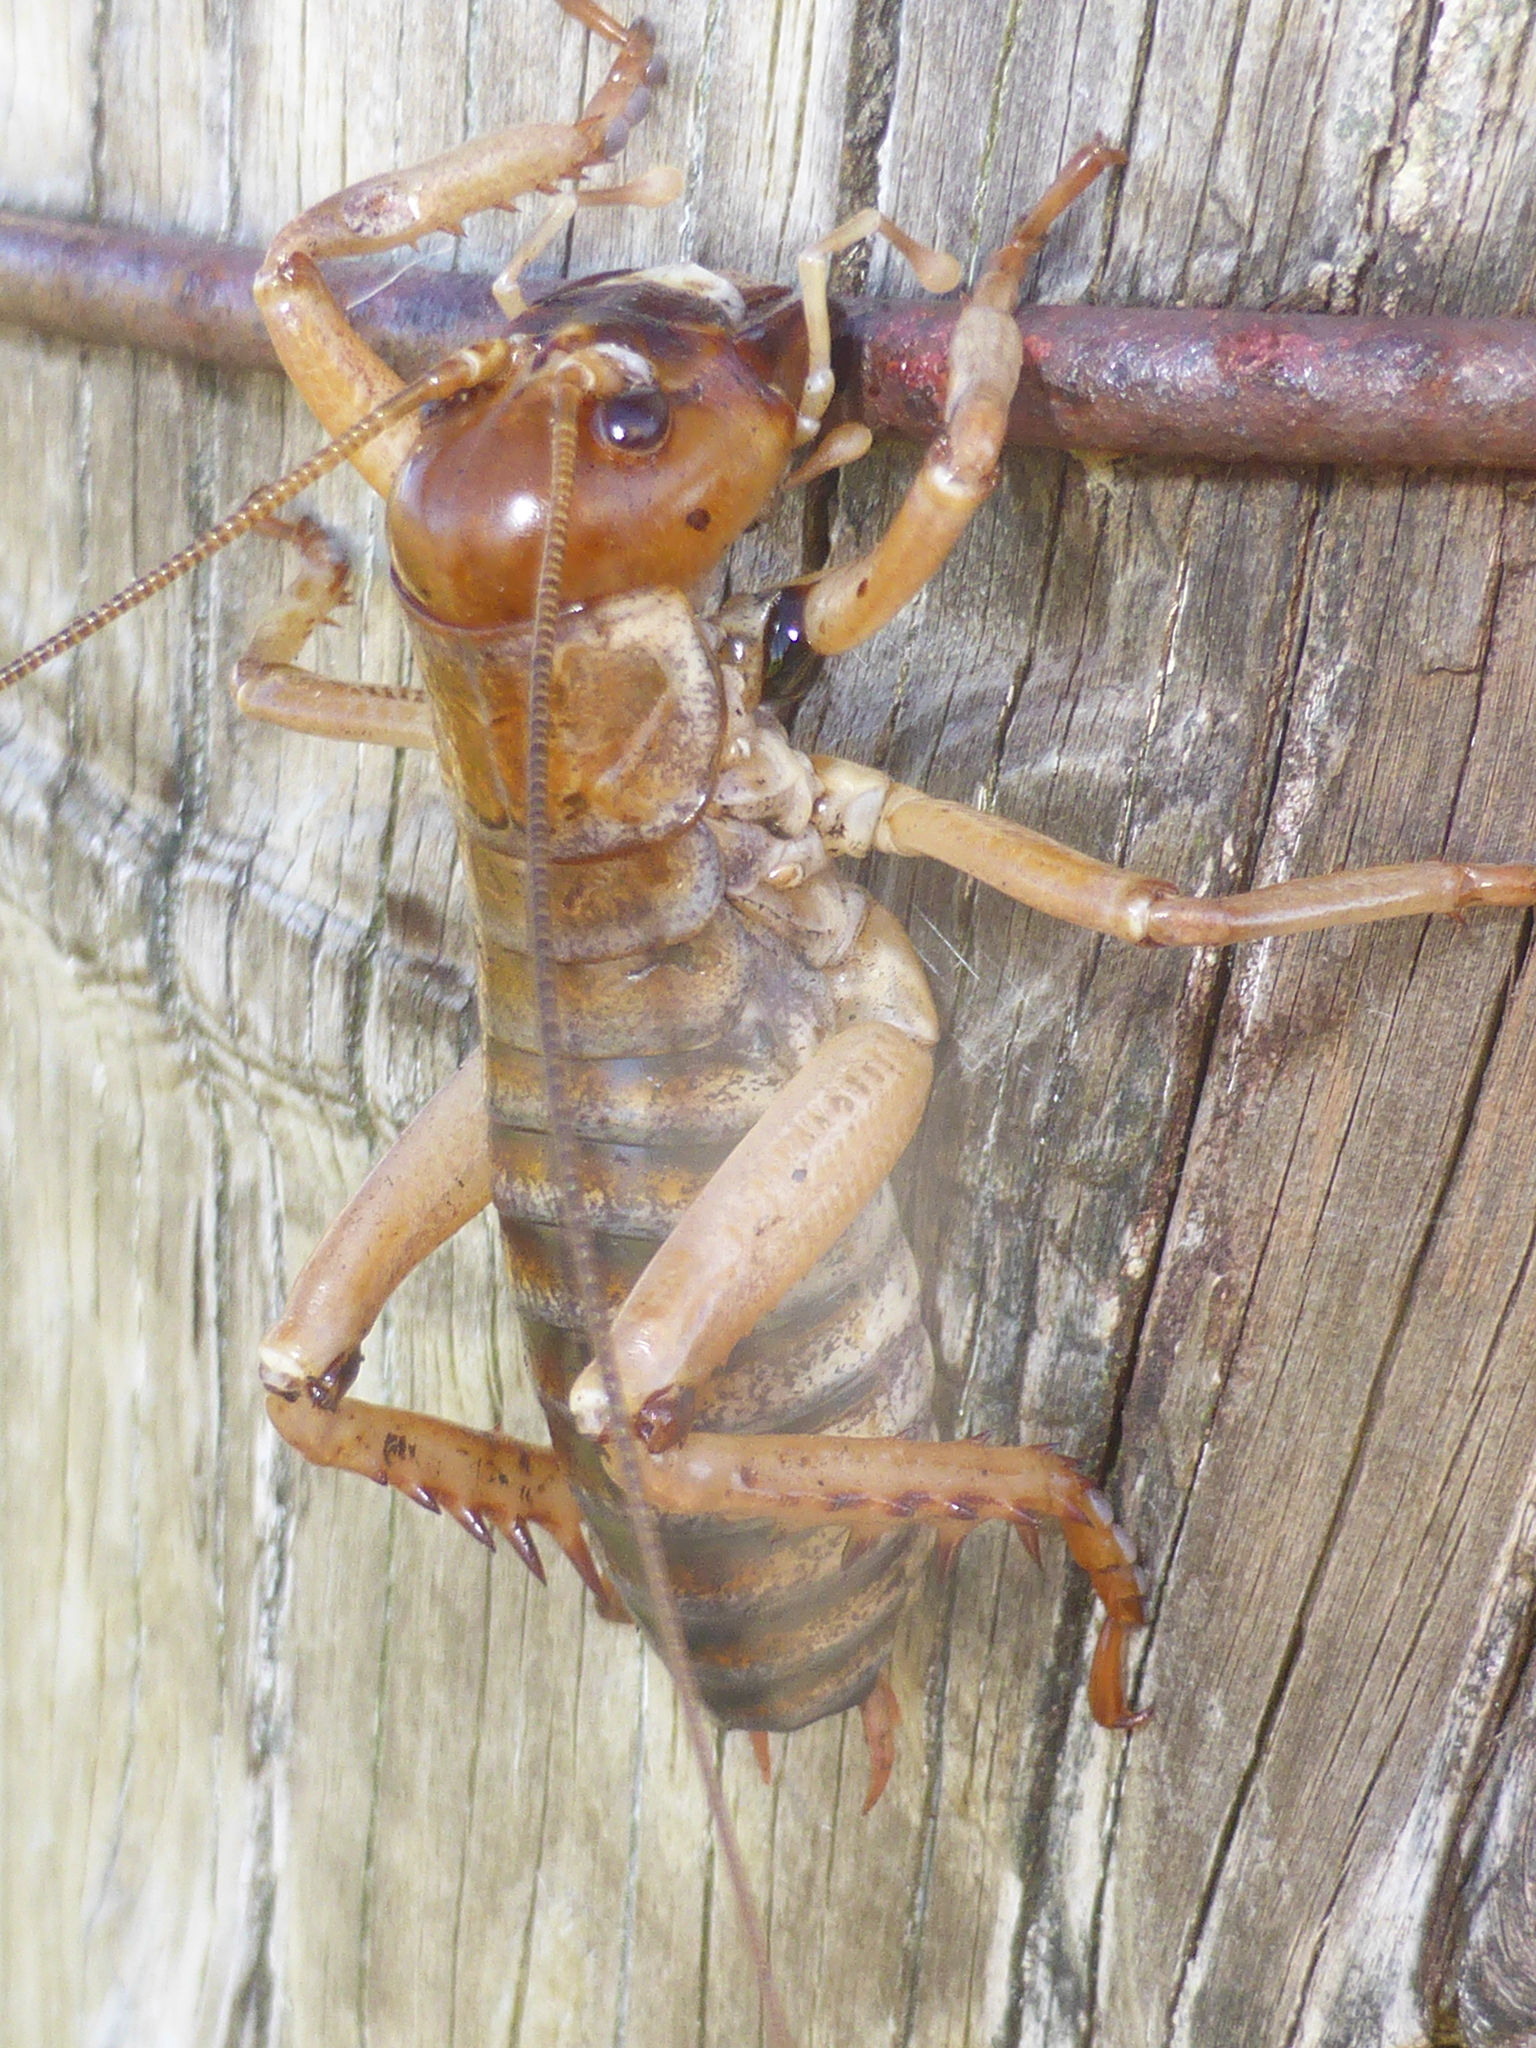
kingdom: Animalia
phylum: Arthropoda
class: Insecta
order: Orthoptera
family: Anostostomatidae
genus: Hemideina
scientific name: Hemideina ricta
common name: Banks peninsula tree weta
